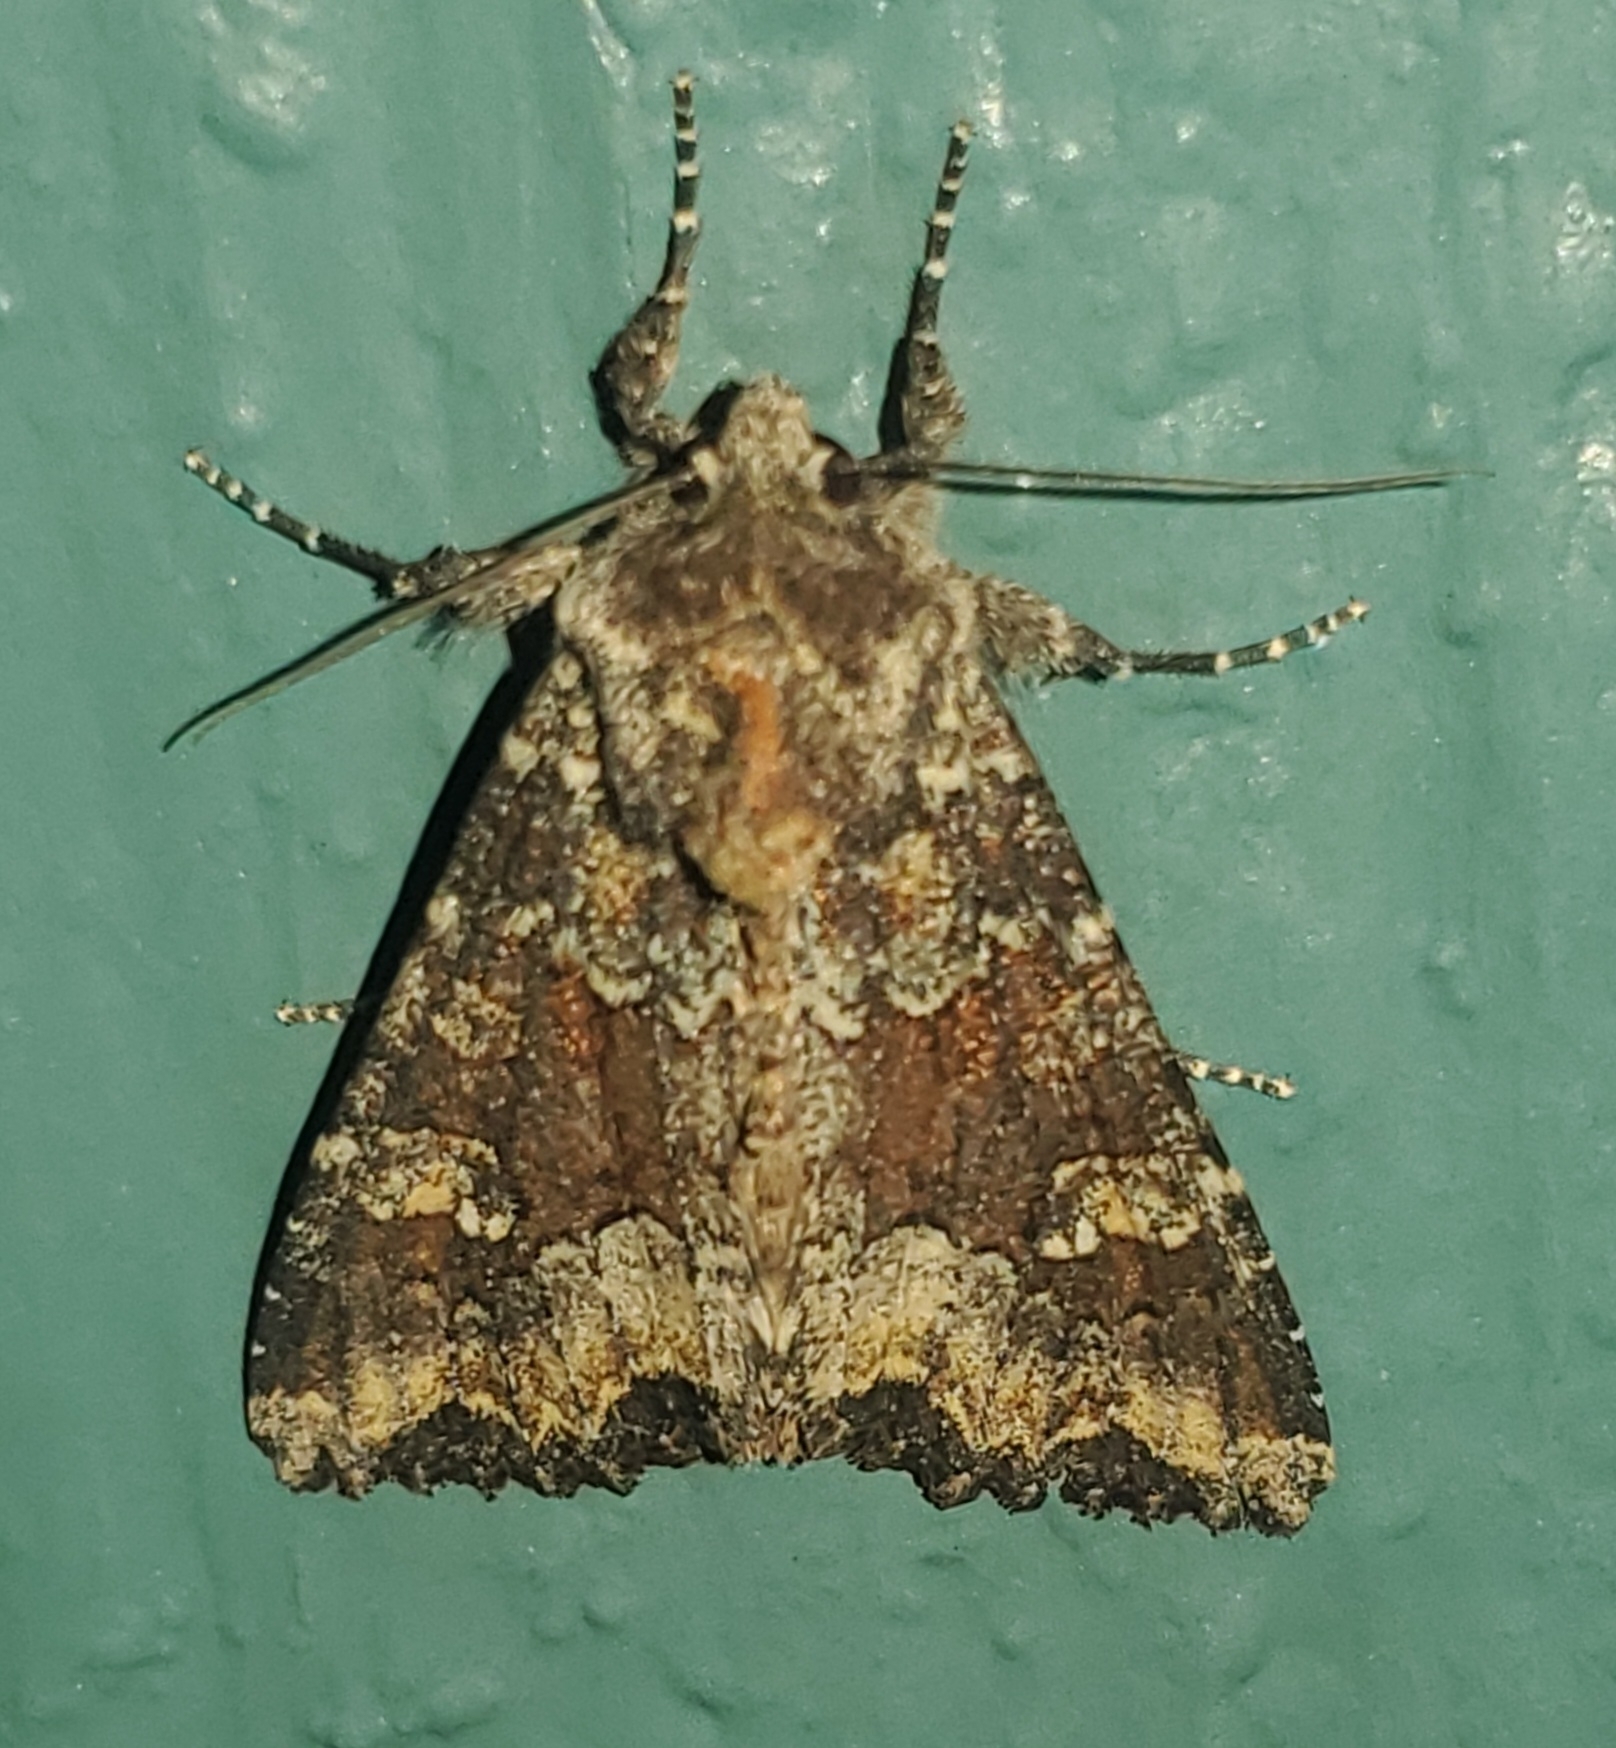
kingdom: Animalia
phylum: Arthropoda
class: Insecta
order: Lepidoptera
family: Noctuidae
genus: Apamea
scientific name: Apamea amputatrix
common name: Yellow-headed cutworm moth
